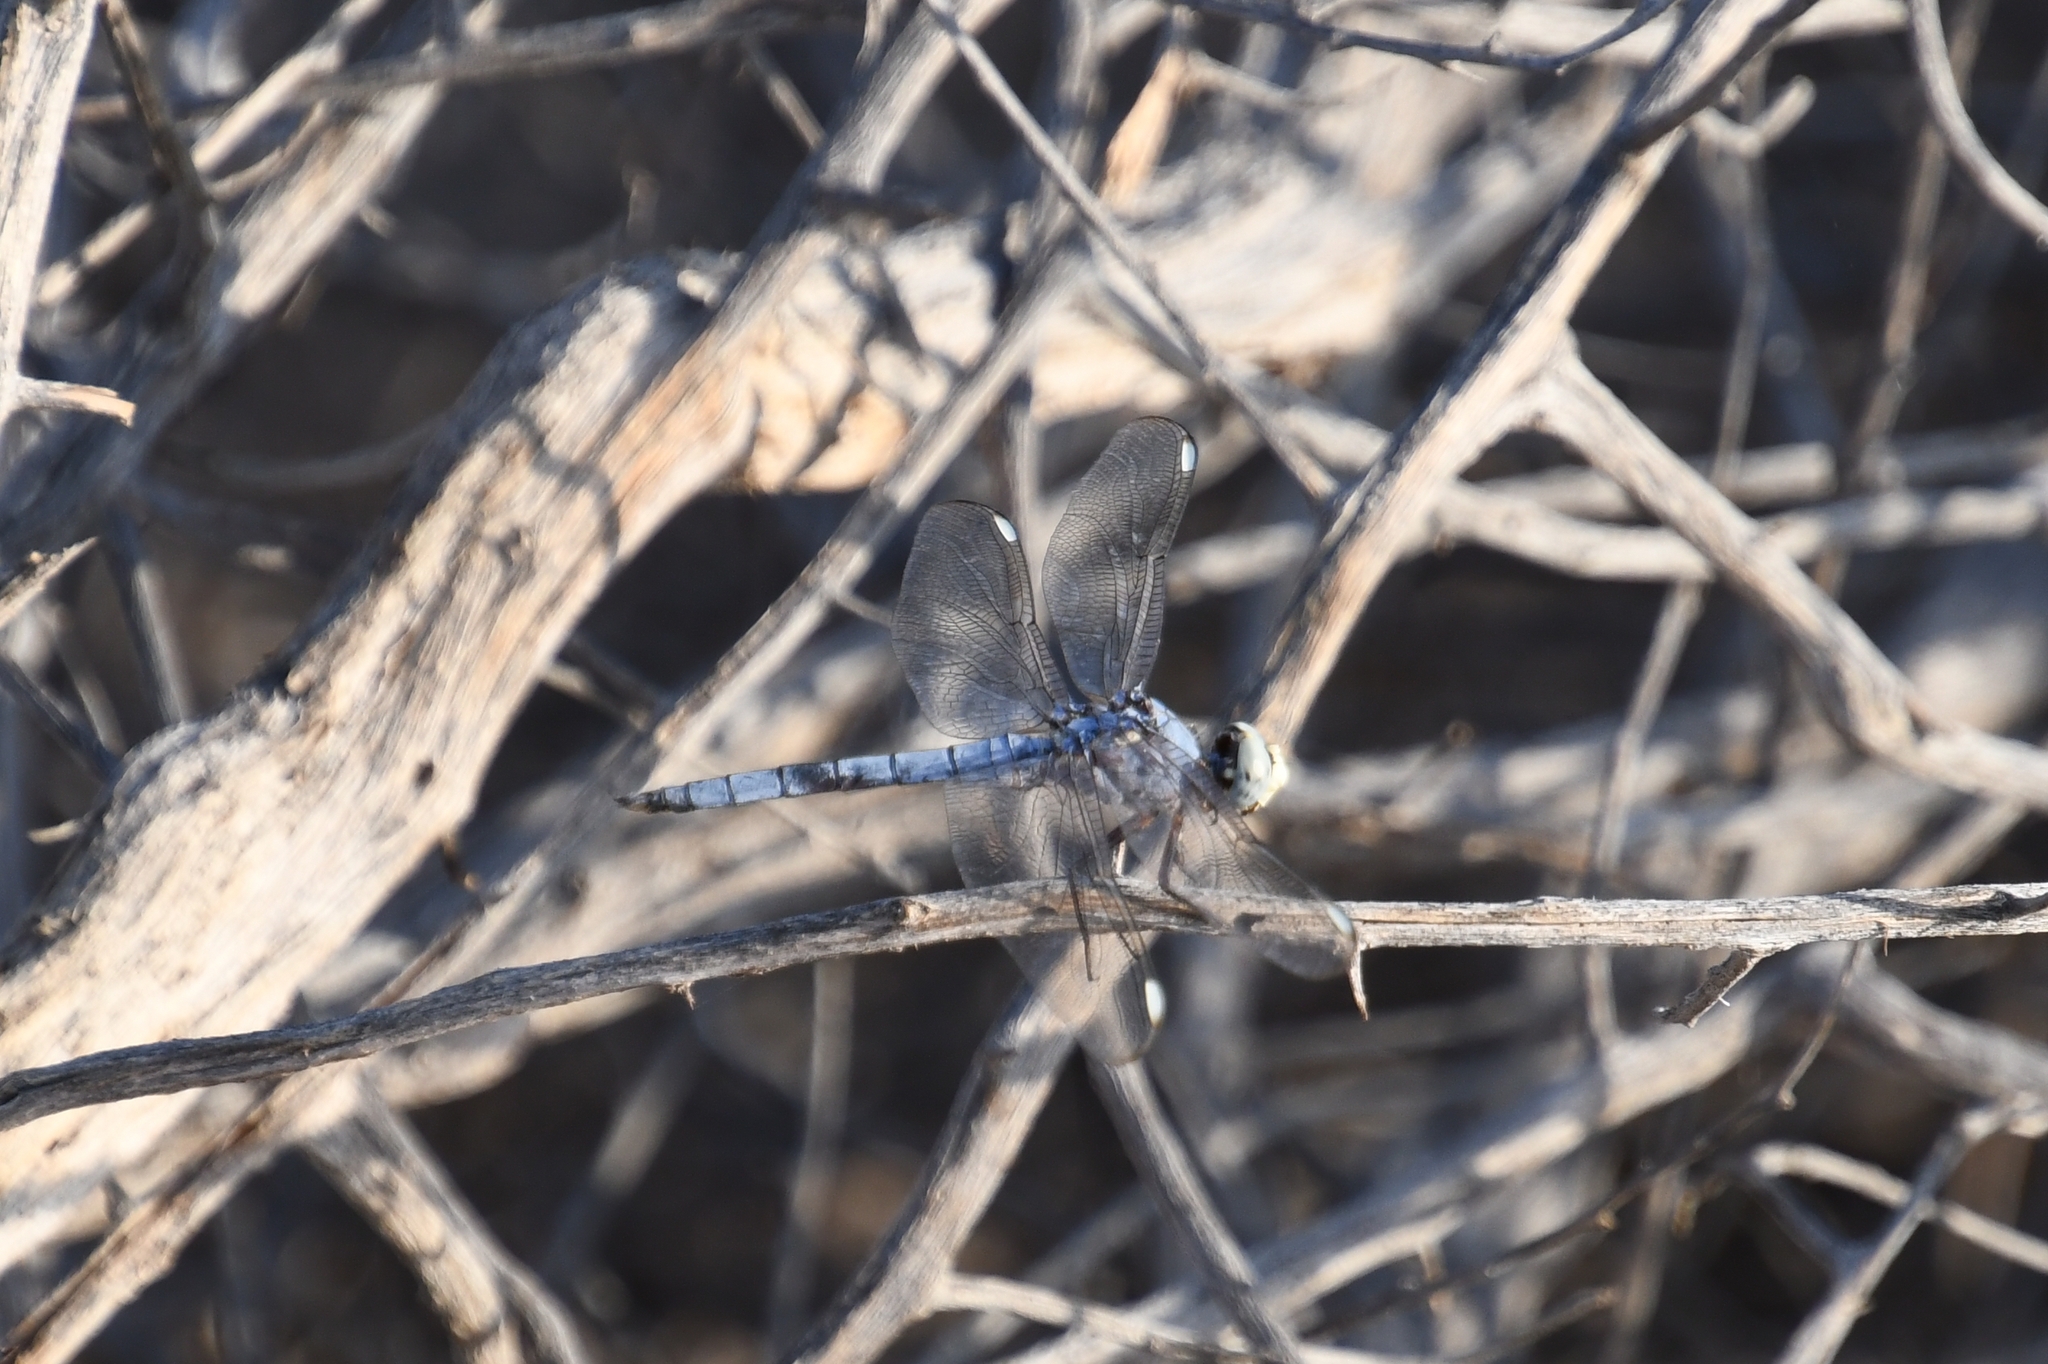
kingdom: Animalia
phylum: Arthropoda
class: Insecta
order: Odonata
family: Libellulidae
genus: Libellula
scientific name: Libellula comanche
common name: Comanche skimmer
